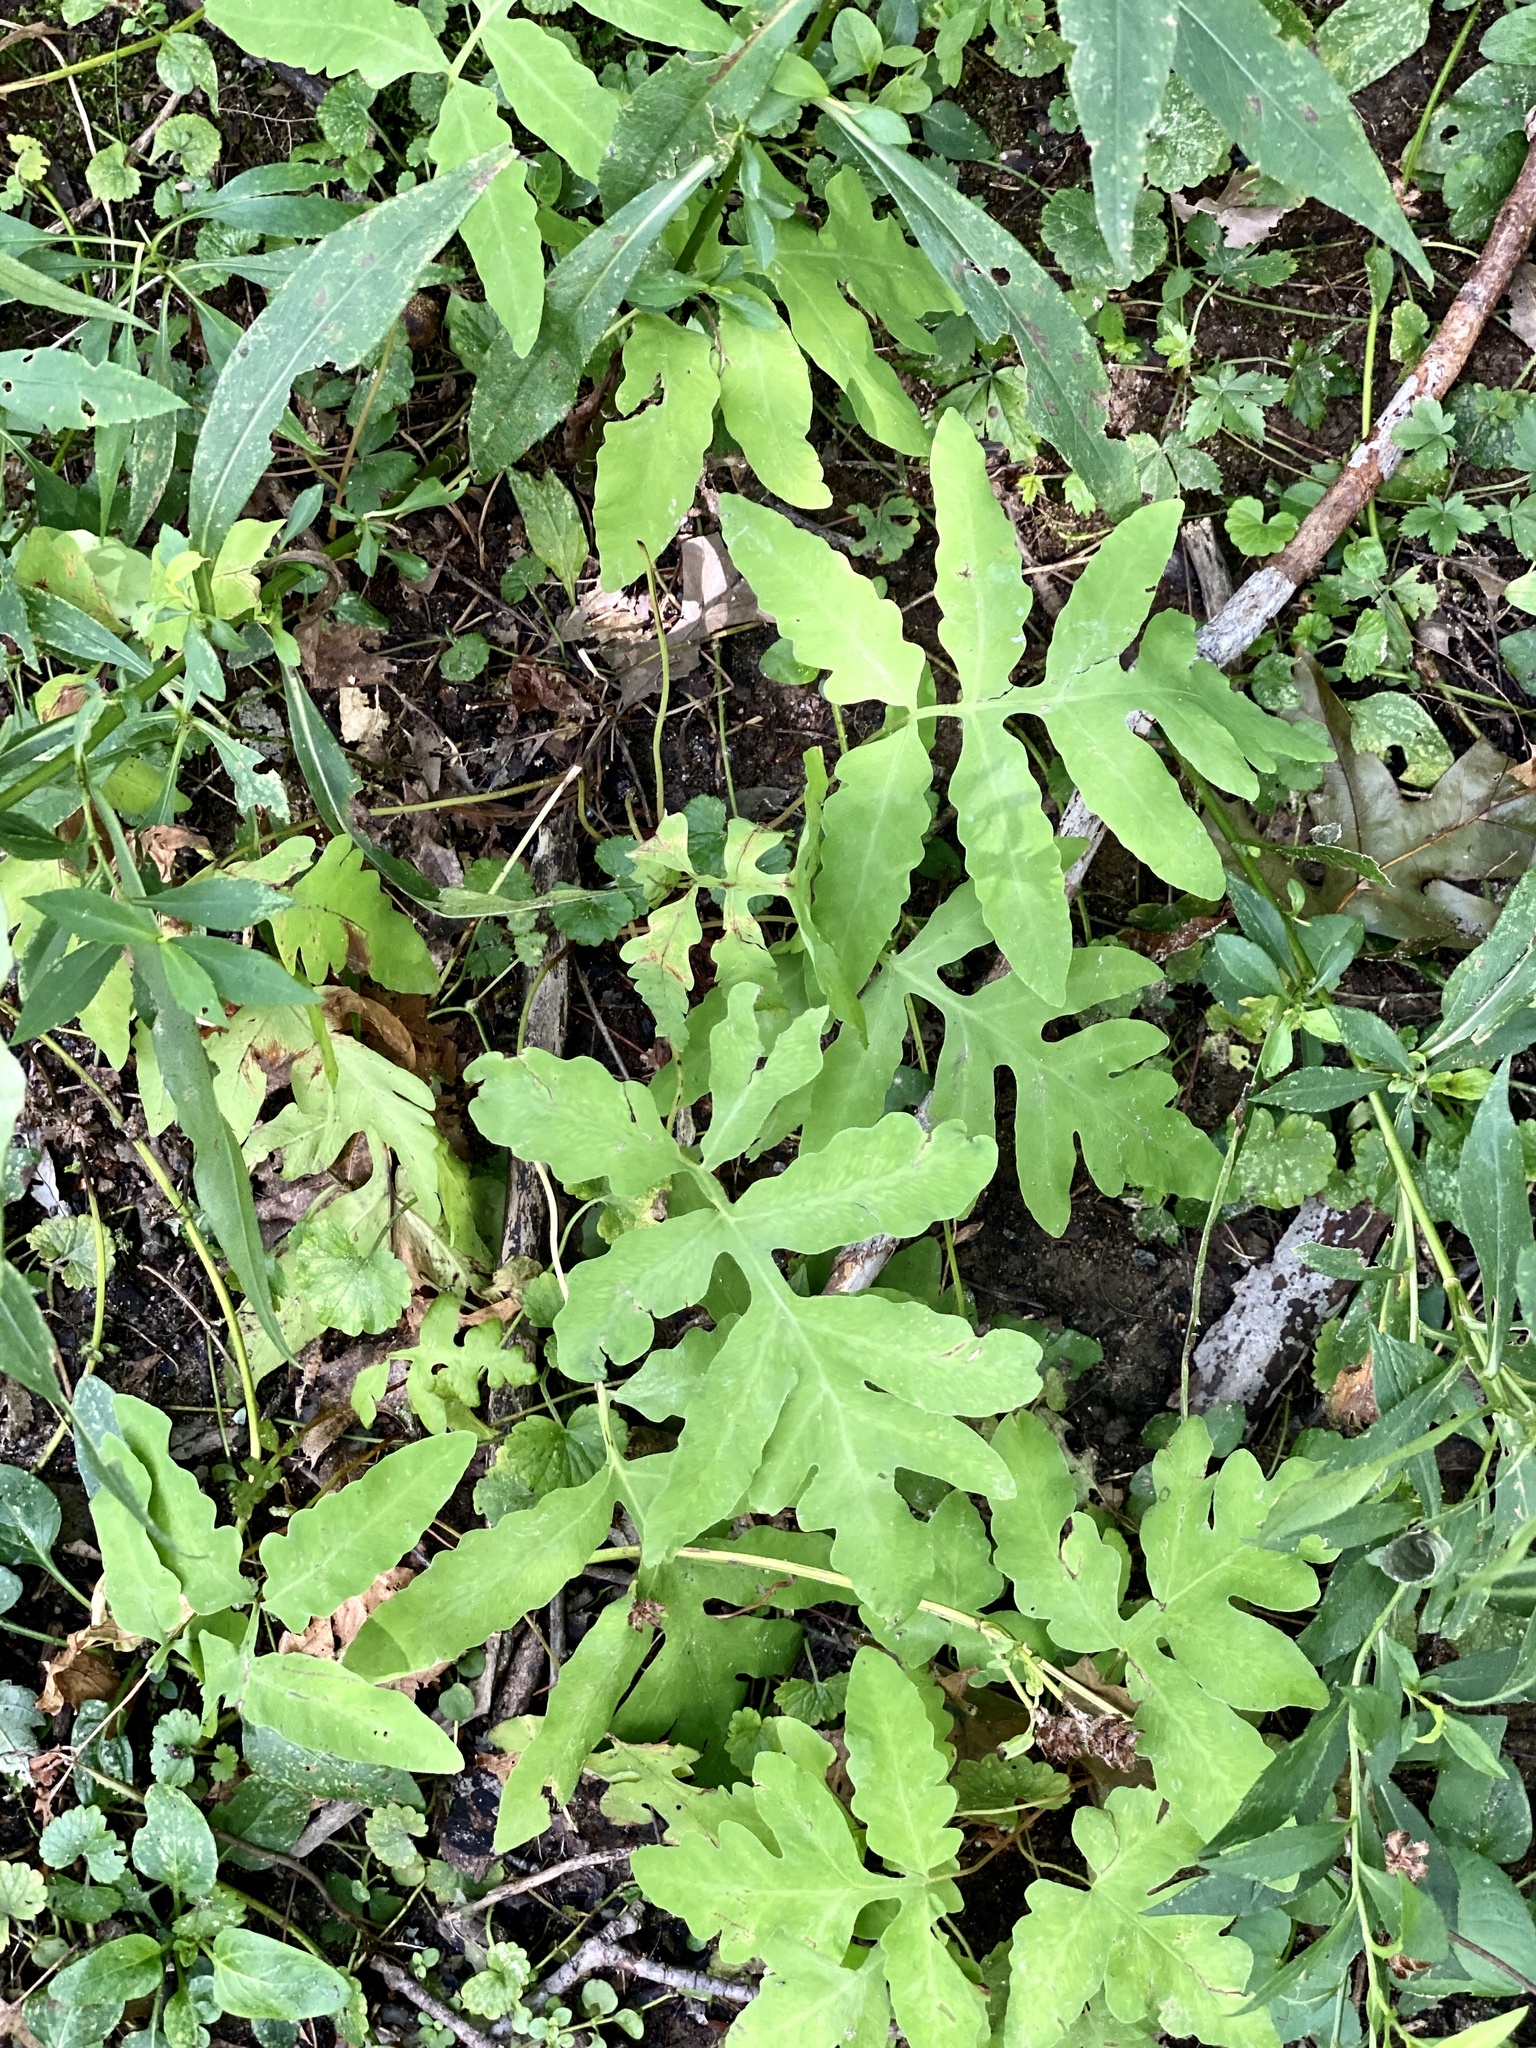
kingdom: Plantae
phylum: Tracheophyta
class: Polypodiopsida
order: Polypodiales
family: Onocleaceae
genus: Onoclea
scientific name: Onoclea sensibilis
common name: Sensitive fern
